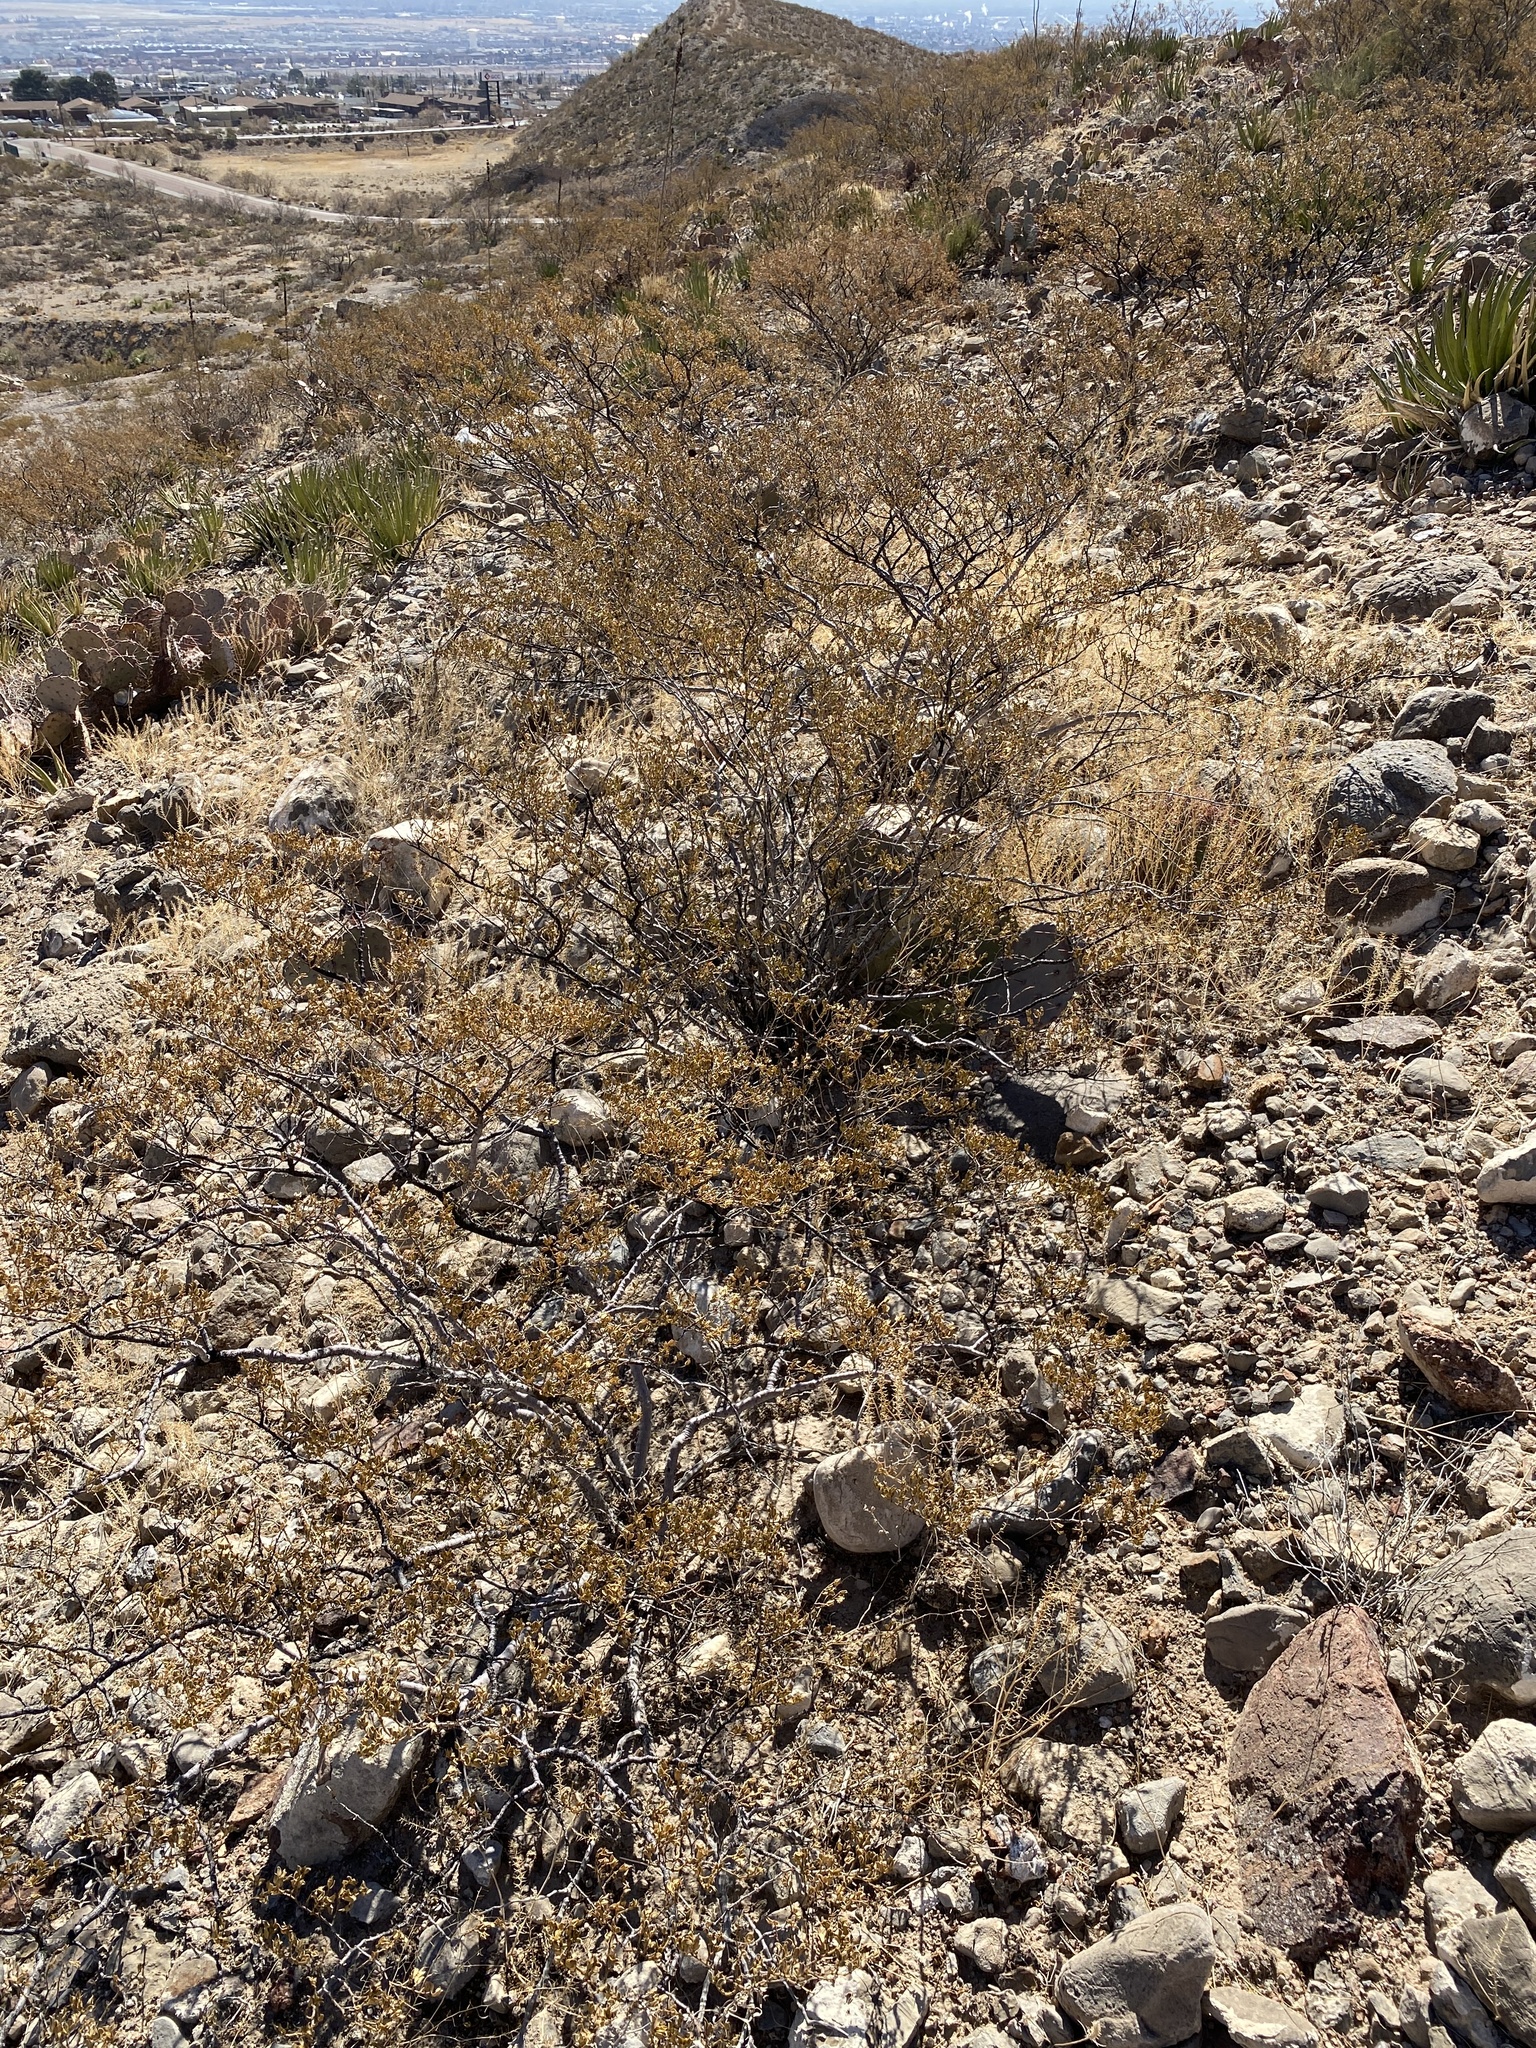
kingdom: Plantae
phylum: Tracheophyta
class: Magnoliopsida
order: Zygophyllales
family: Zygophyllaceae
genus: Larrea
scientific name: Larrea tridentata
